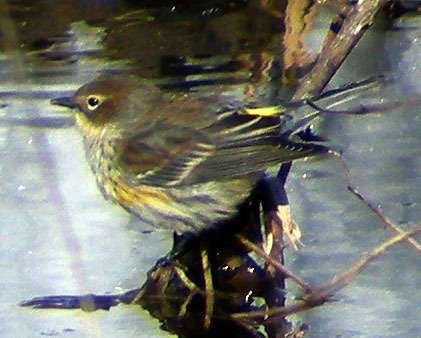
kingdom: Animalia
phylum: Chordata
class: Aves
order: Passeriformes
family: Parulidae
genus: Setophaga
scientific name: Setophaga coronata
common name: Myrtle warbler
